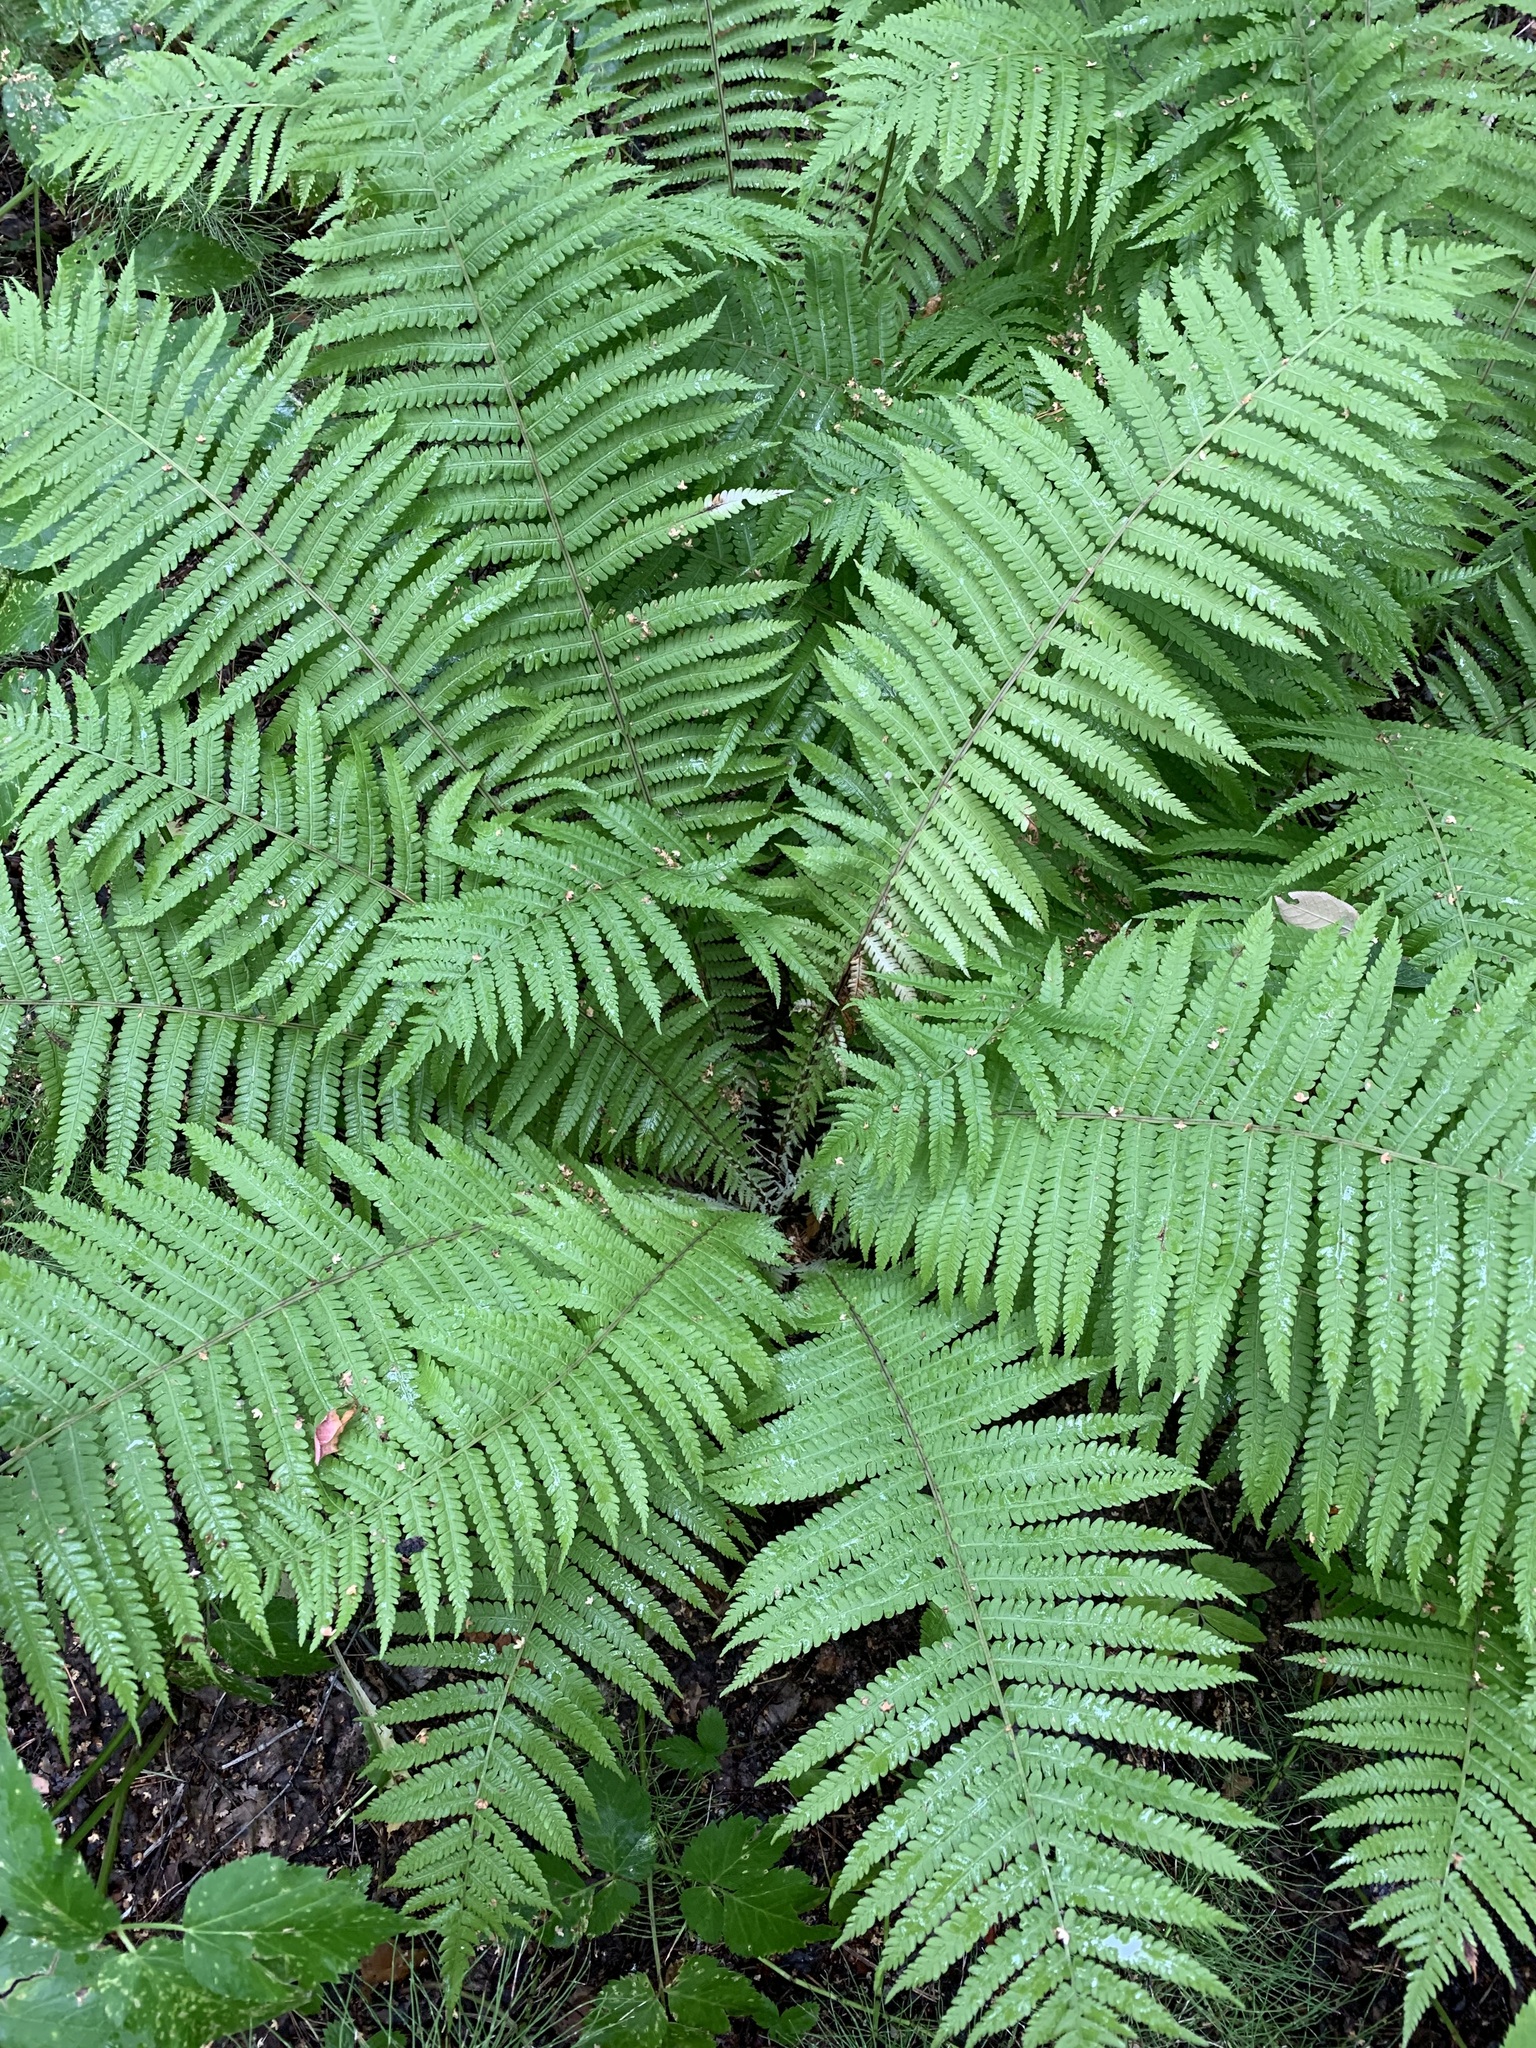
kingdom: Plantae
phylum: Tracheophyta
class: Polypodiopsida
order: Polypodiales
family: Onocleaceae
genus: Matteuccia
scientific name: Matteuccia struthiopteris
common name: Ostrich fern
